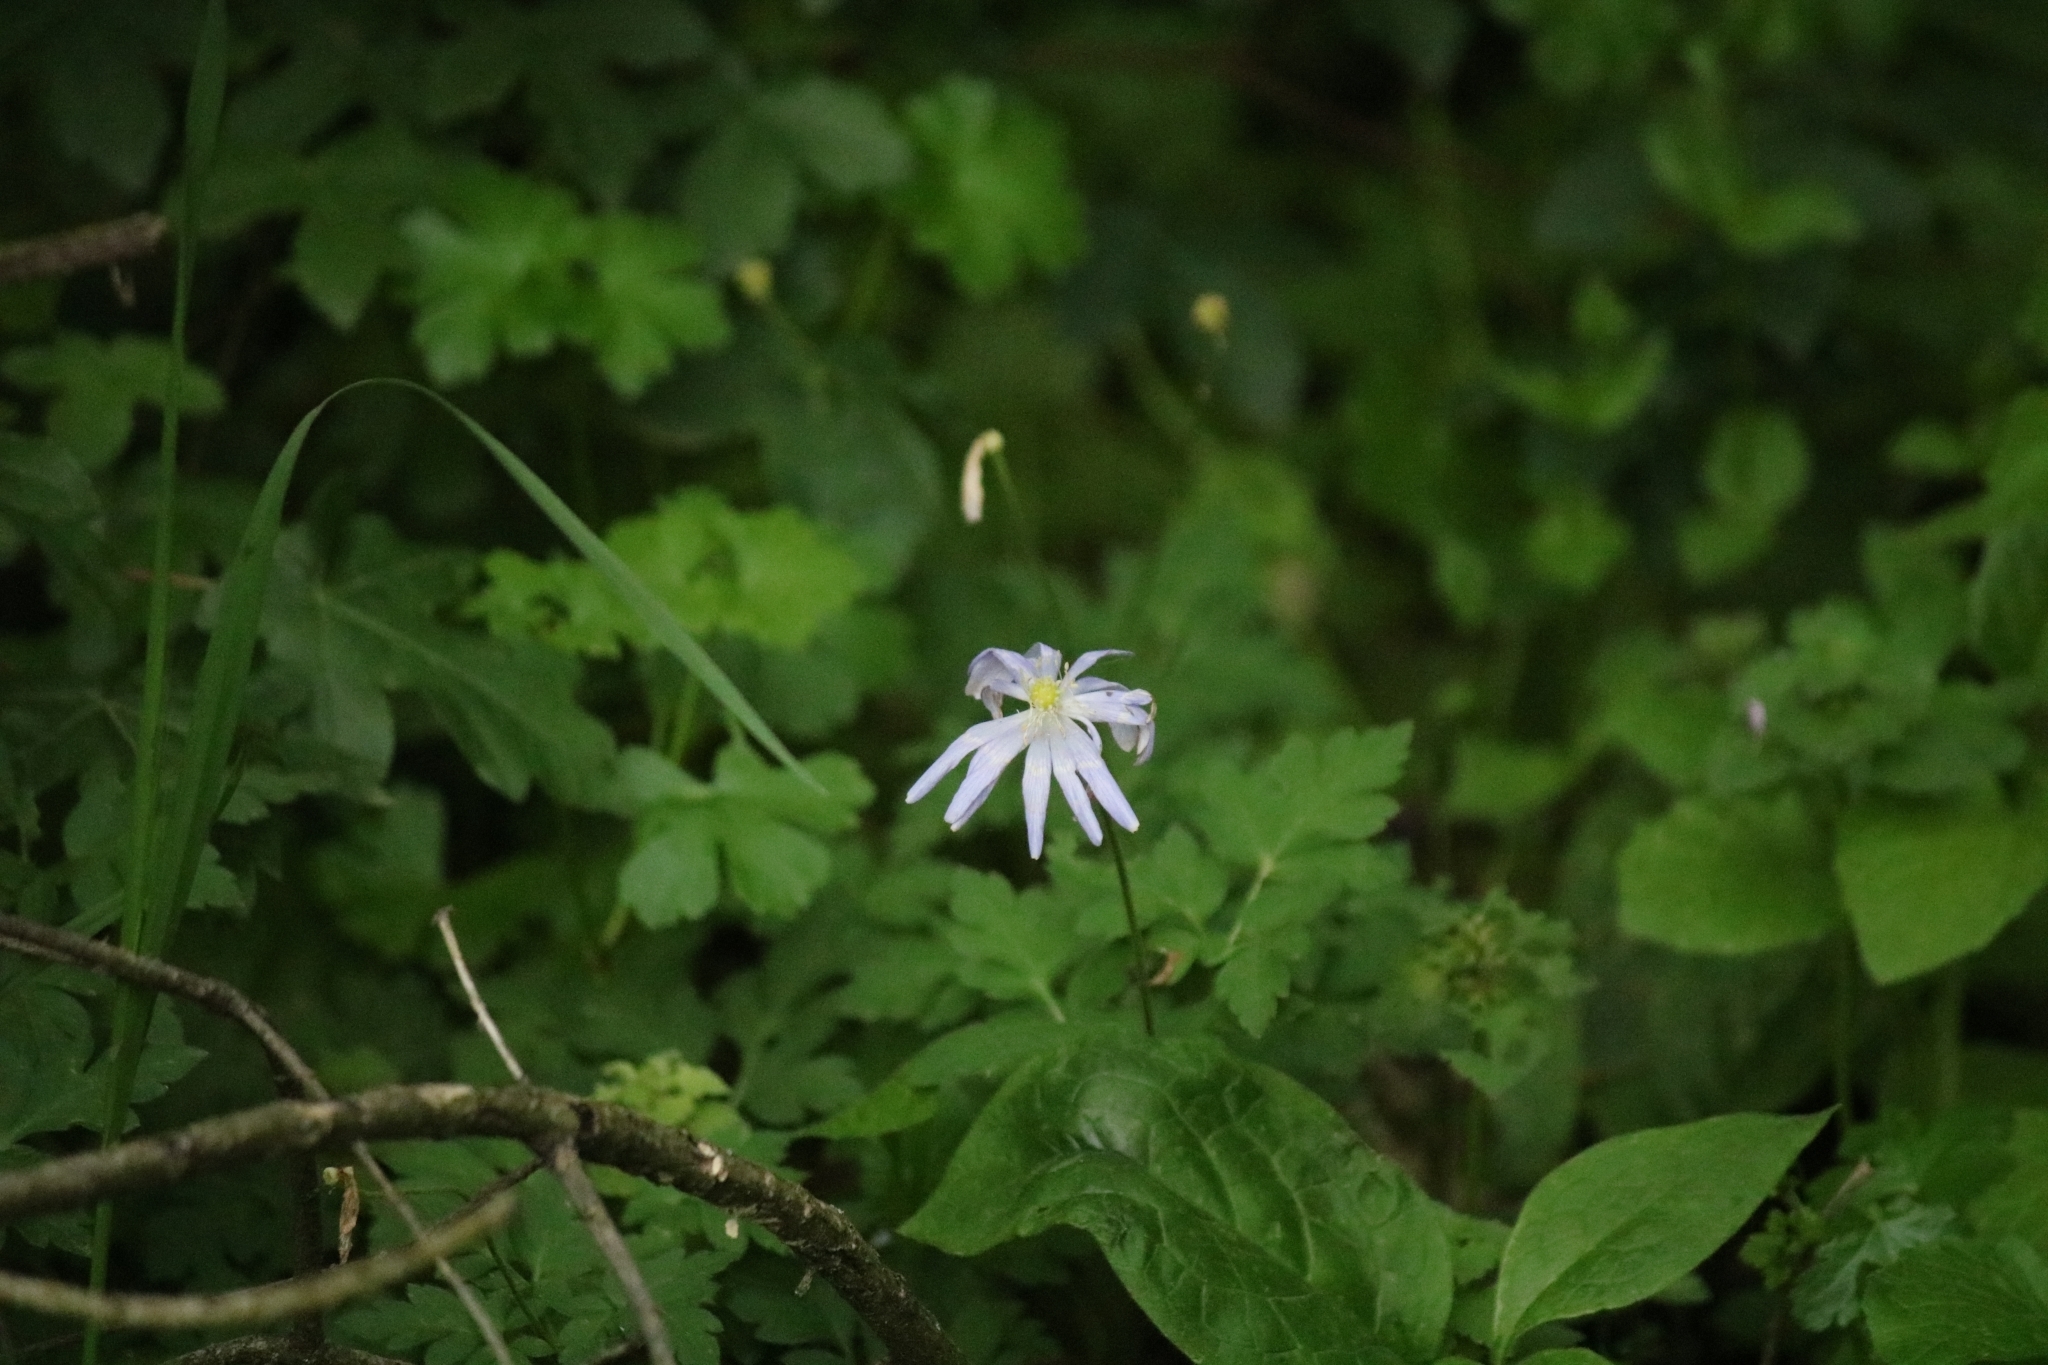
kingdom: Plantae
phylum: Tracheophyta
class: Magnoliopsida
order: Ranunculales
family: Ranunculaceae
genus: Anemone
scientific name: Anemone apennina
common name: Blue anemone
